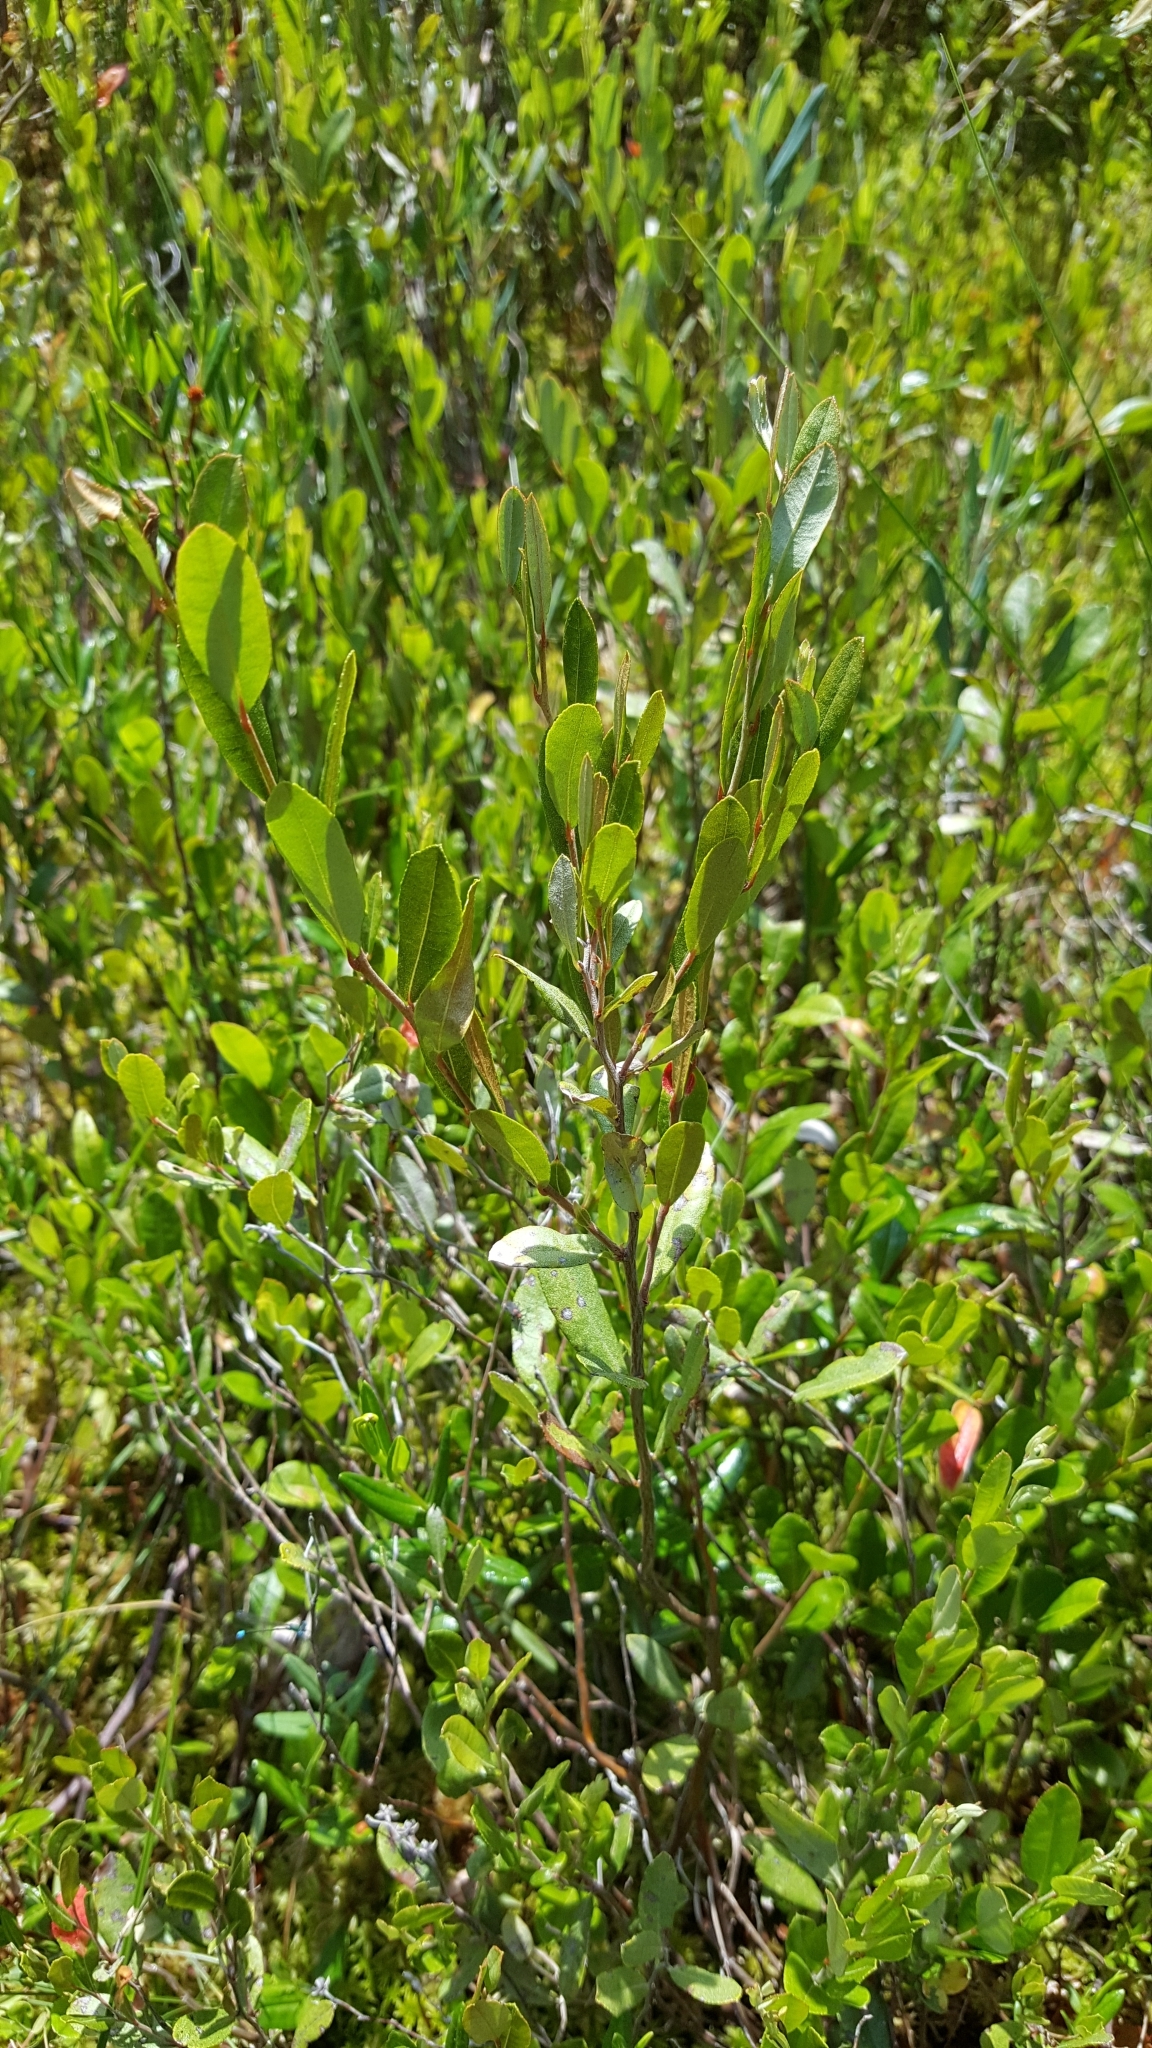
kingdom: Plantae
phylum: Tracheophyta
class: Magnoliopsida
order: Ericales
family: Ericaceae
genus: Chamaedaphne
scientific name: Chamaedaphne calyculata
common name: Leatherleaf
